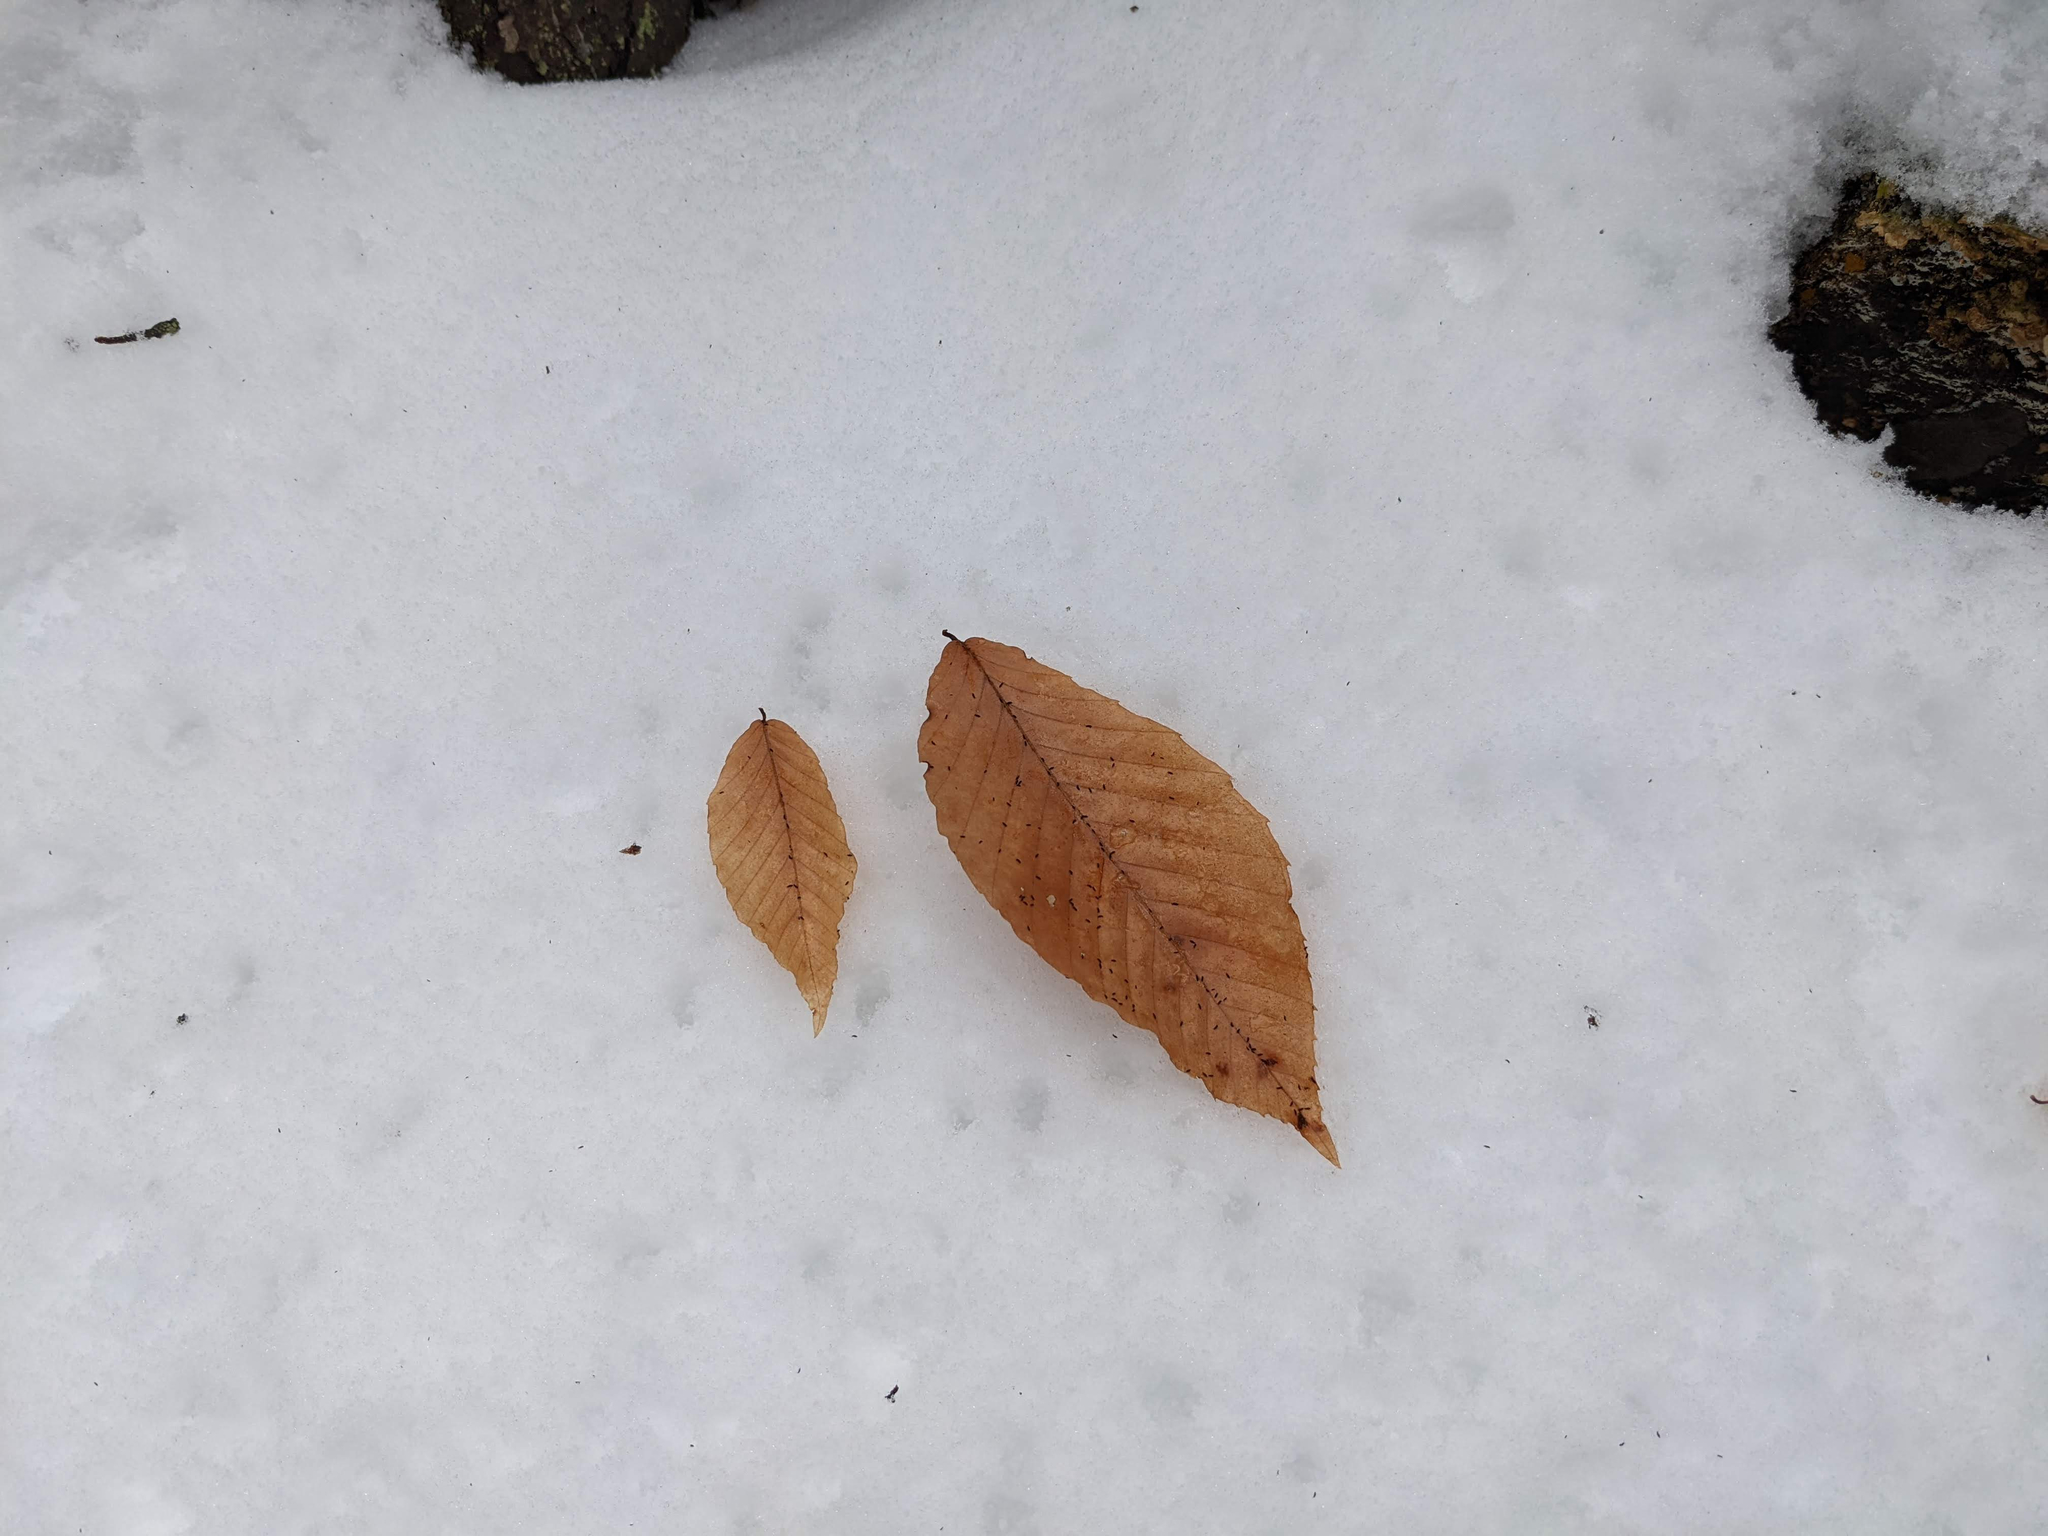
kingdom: Plantae
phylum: Tracheophyta
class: Magnoliopsida
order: Fagales
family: Fagaceae
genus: Fagus
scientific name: Fagus grandifolia
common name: American beech
